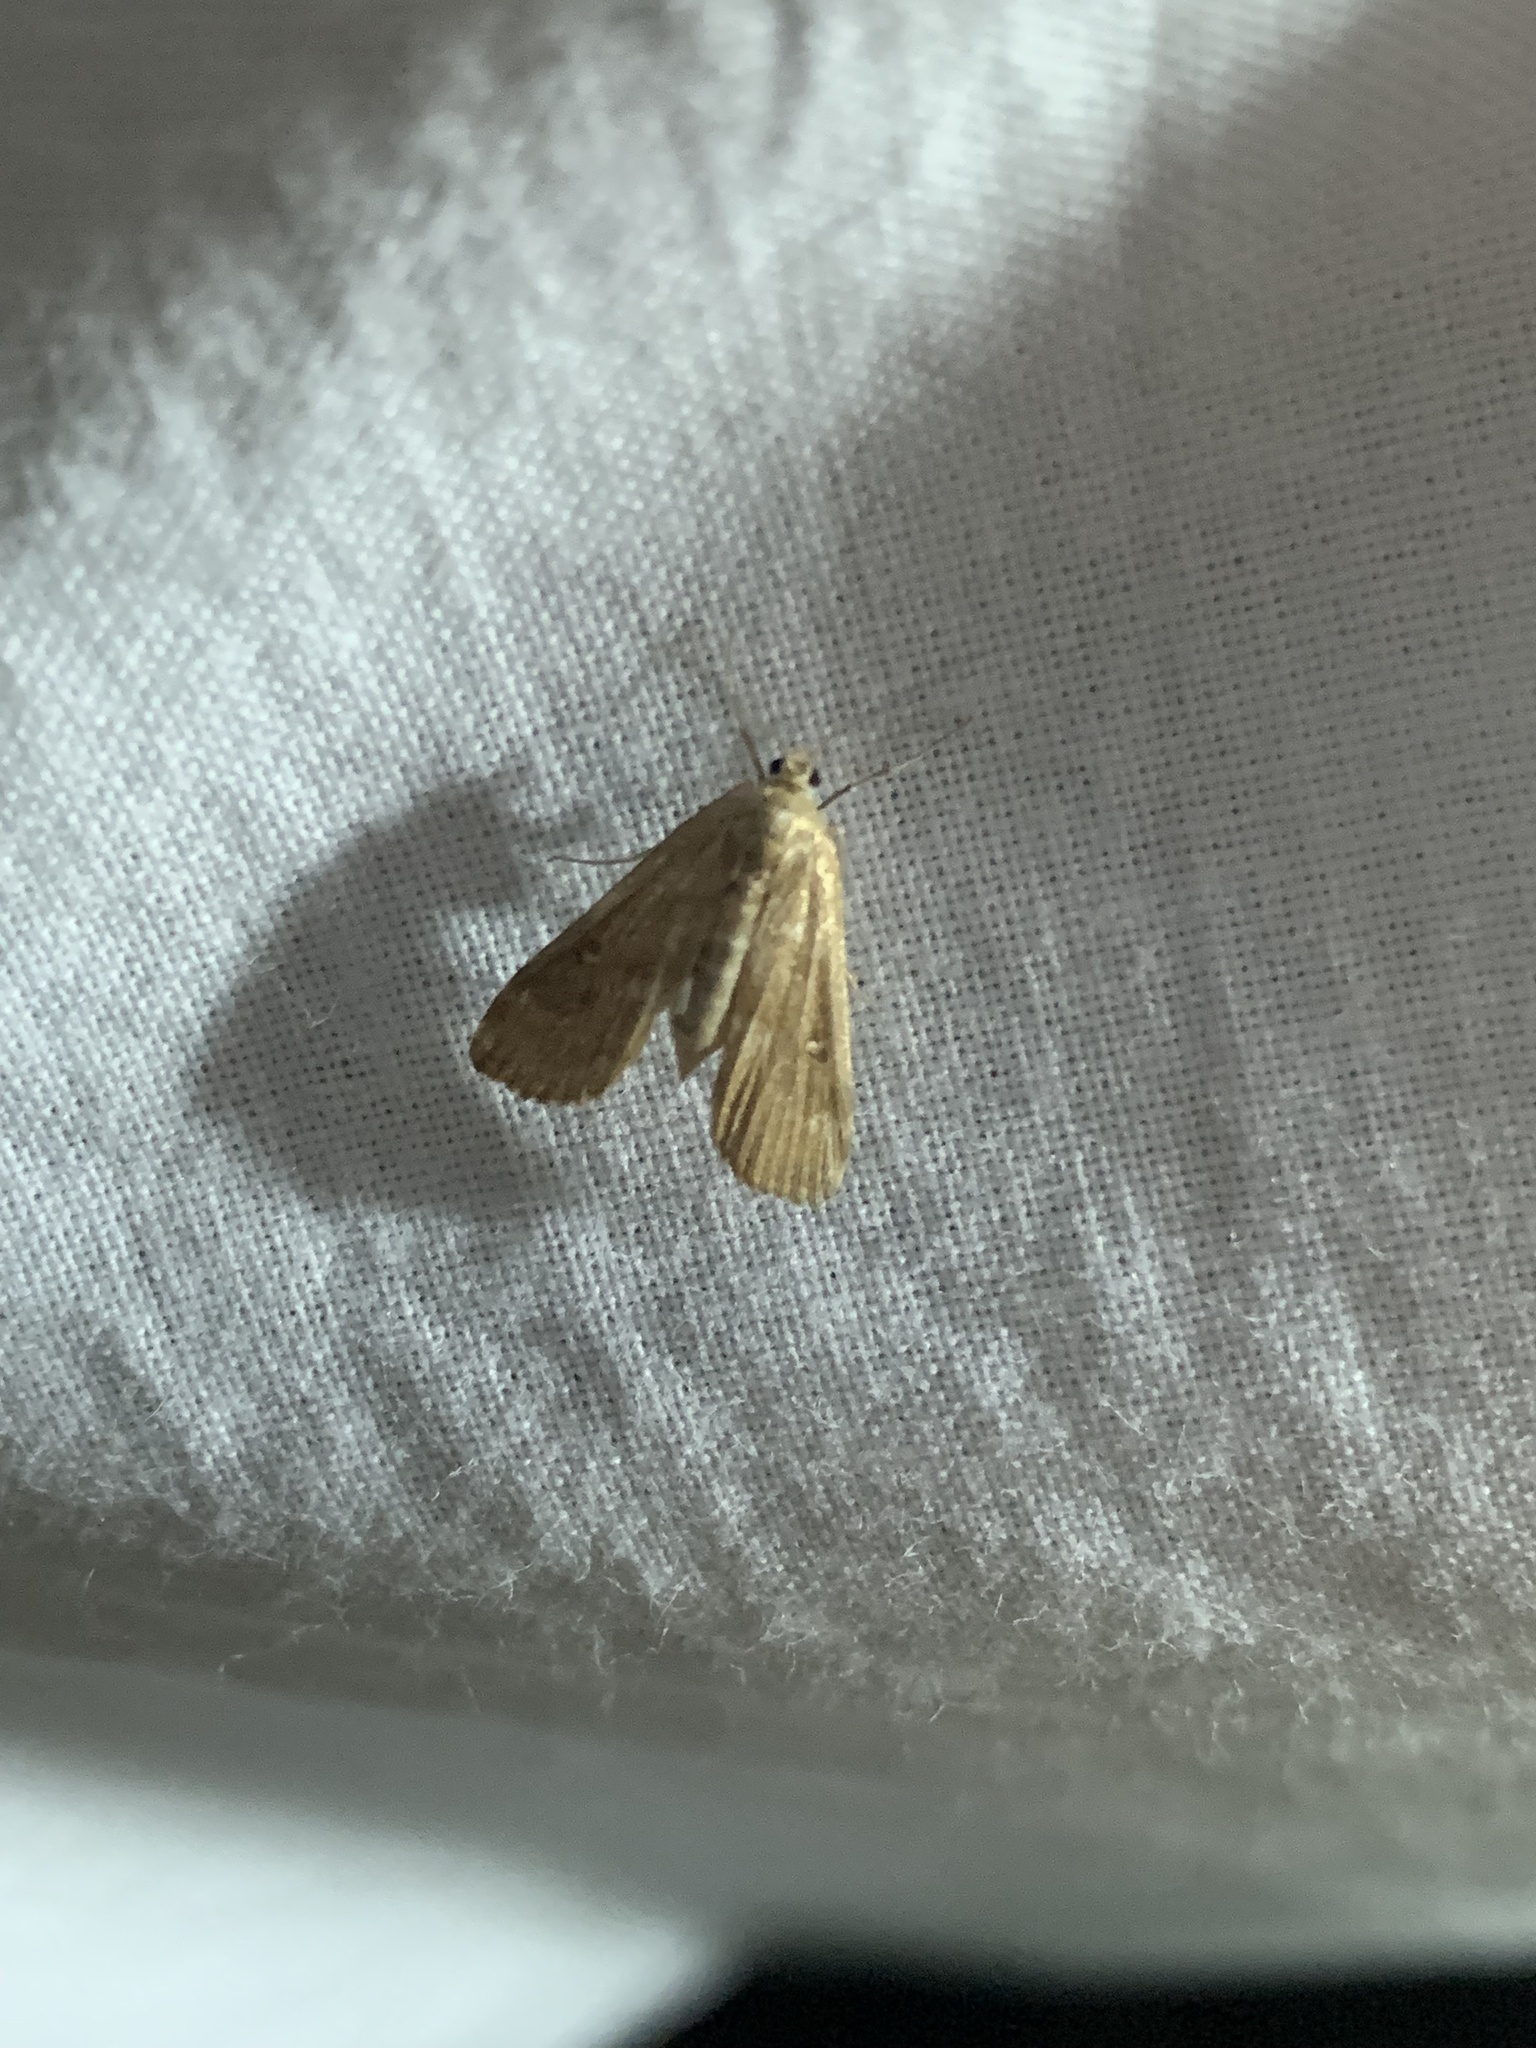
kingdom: Animalia
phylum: Arthropoda
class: Insecta
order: Lepidoptera
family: Crambidae
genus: Parapoynx
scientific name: Parapoynx stratiotata
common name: Ringed china-mark
